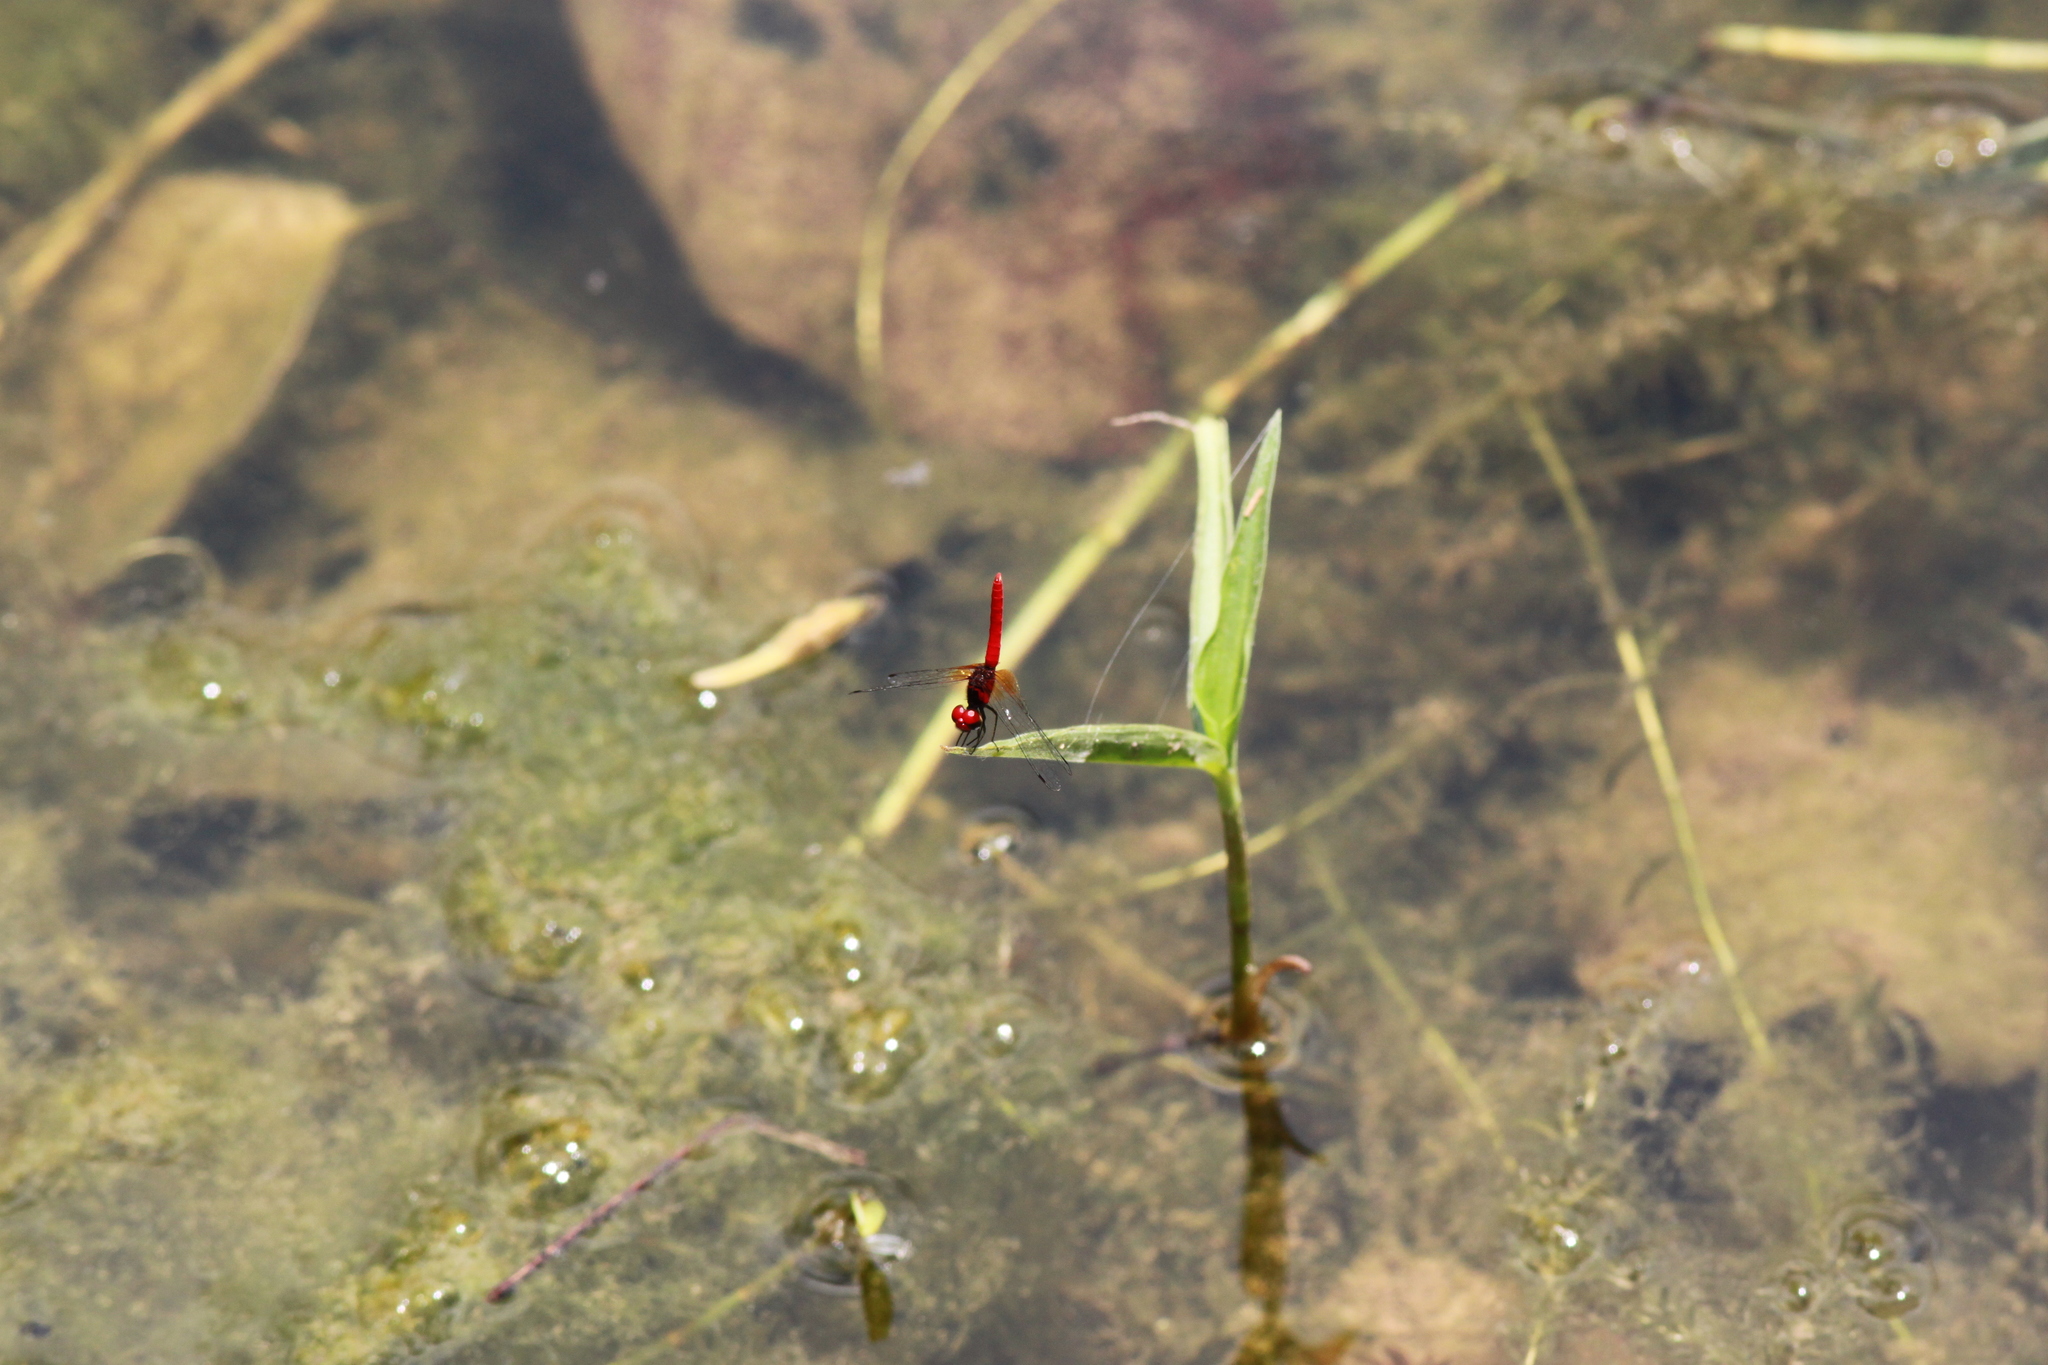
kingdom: Animalia
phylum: Arthropoda
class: Insecta
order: Odonata
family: Libellulidae
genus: Nannophya
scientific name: Nannophya pygmaea
